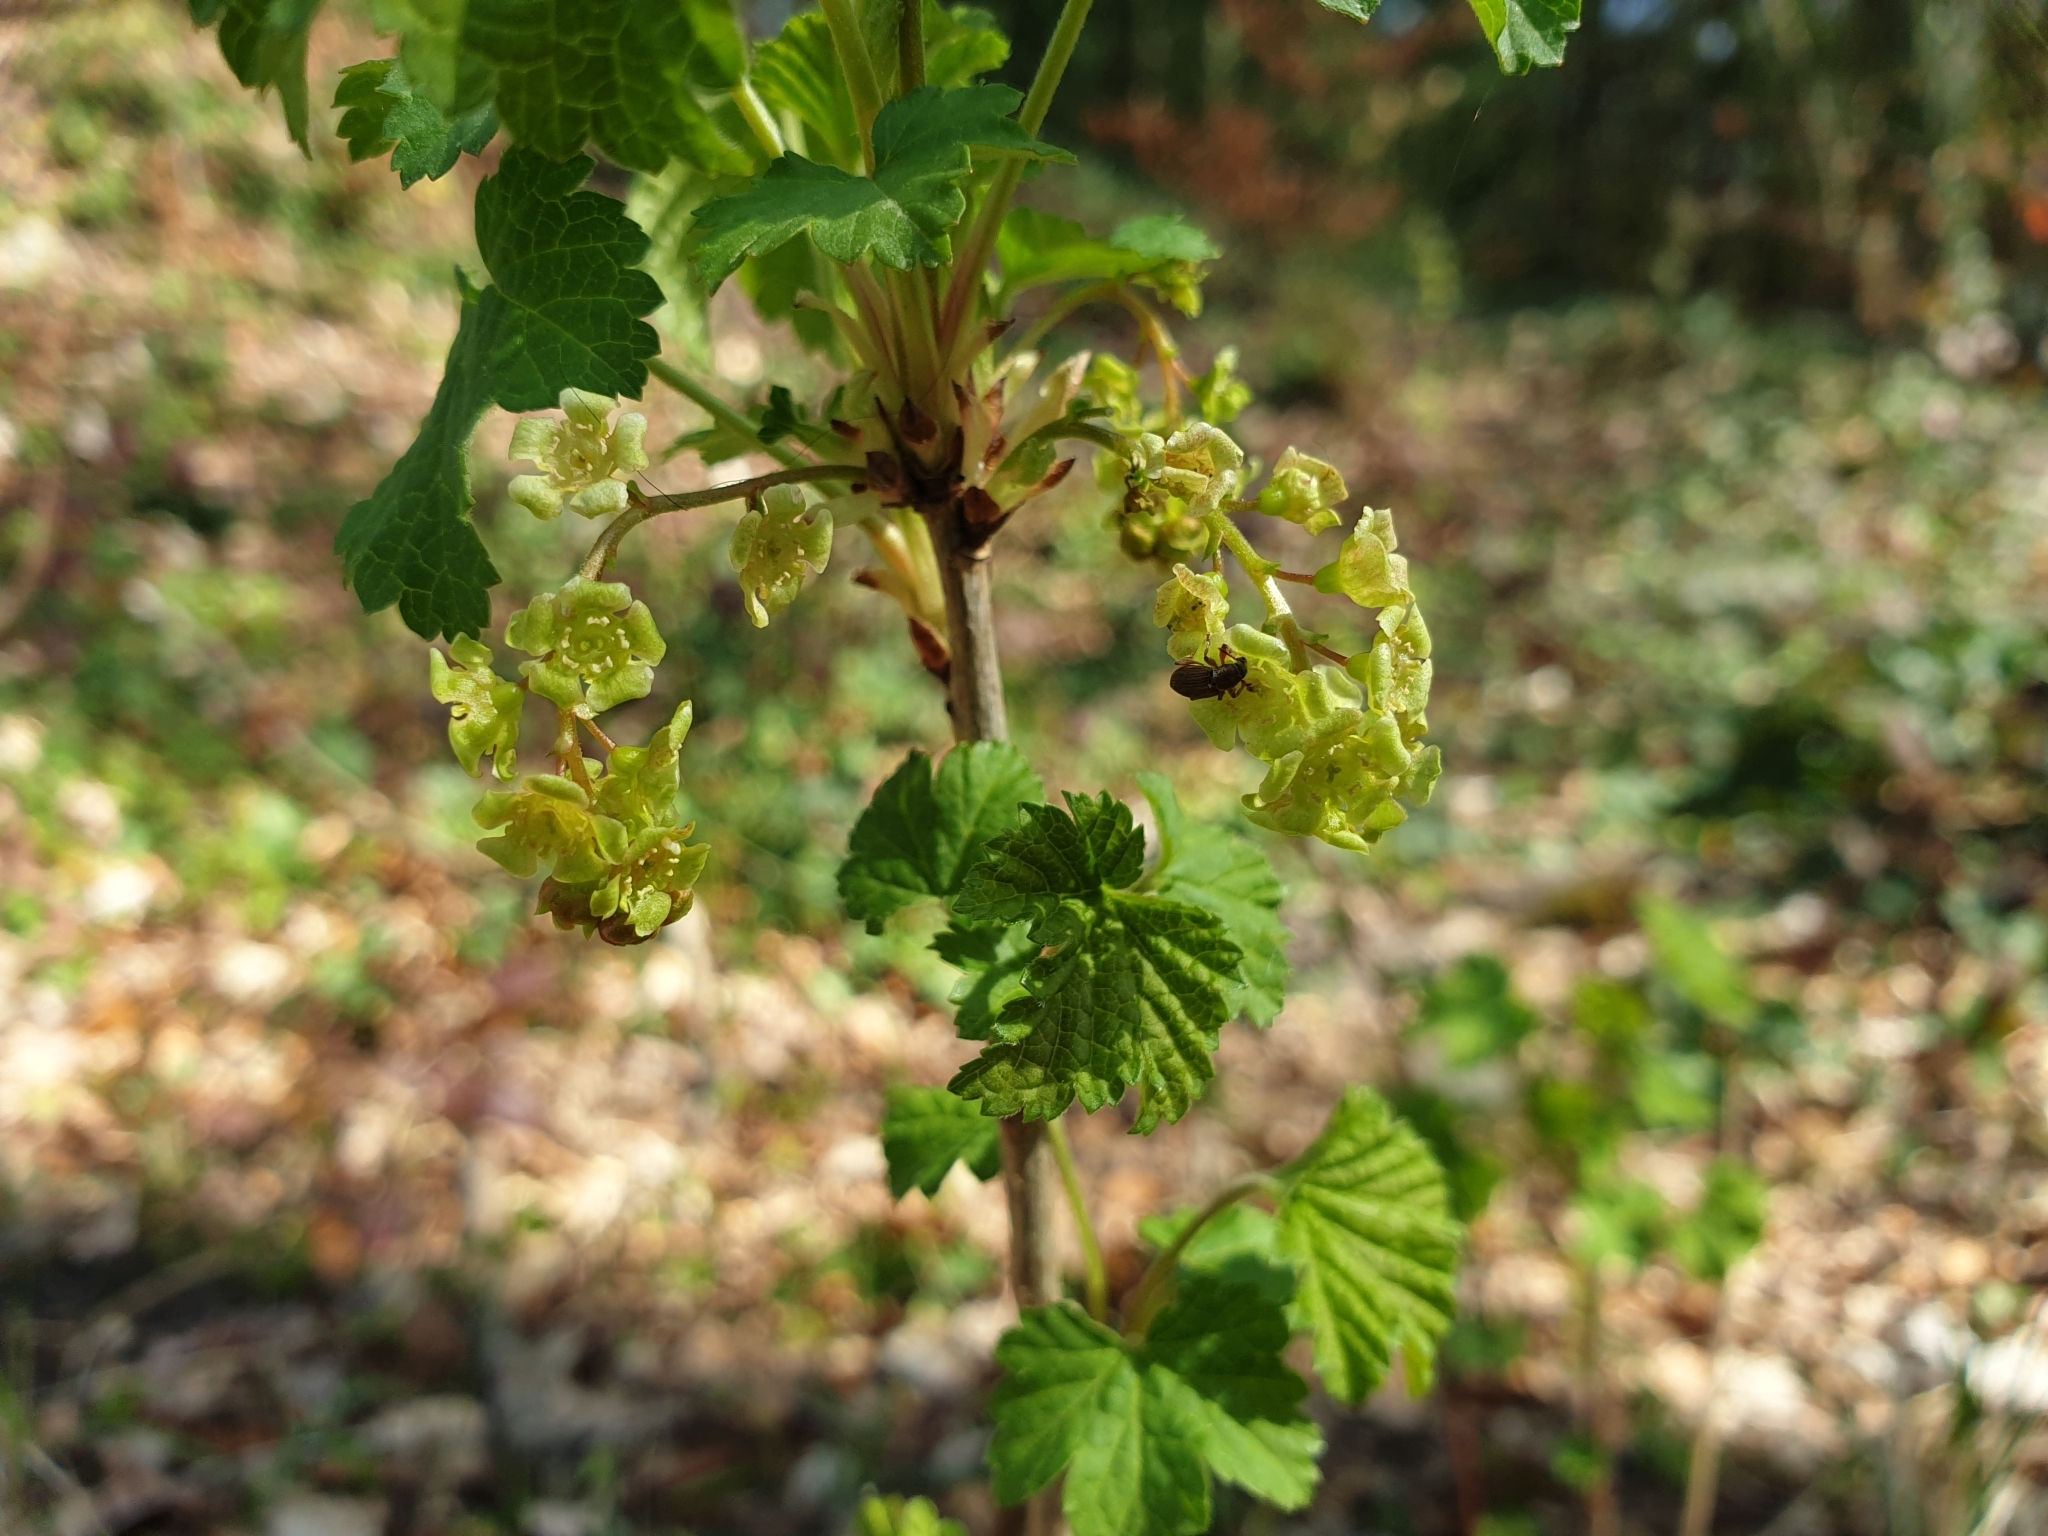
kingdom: Plantae
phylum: Tracheophyta
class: Magnoliopsida
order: Saxifragales
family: Grossulariaceae
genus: Ribes
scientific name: Ribes rubrum
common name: Red currant
